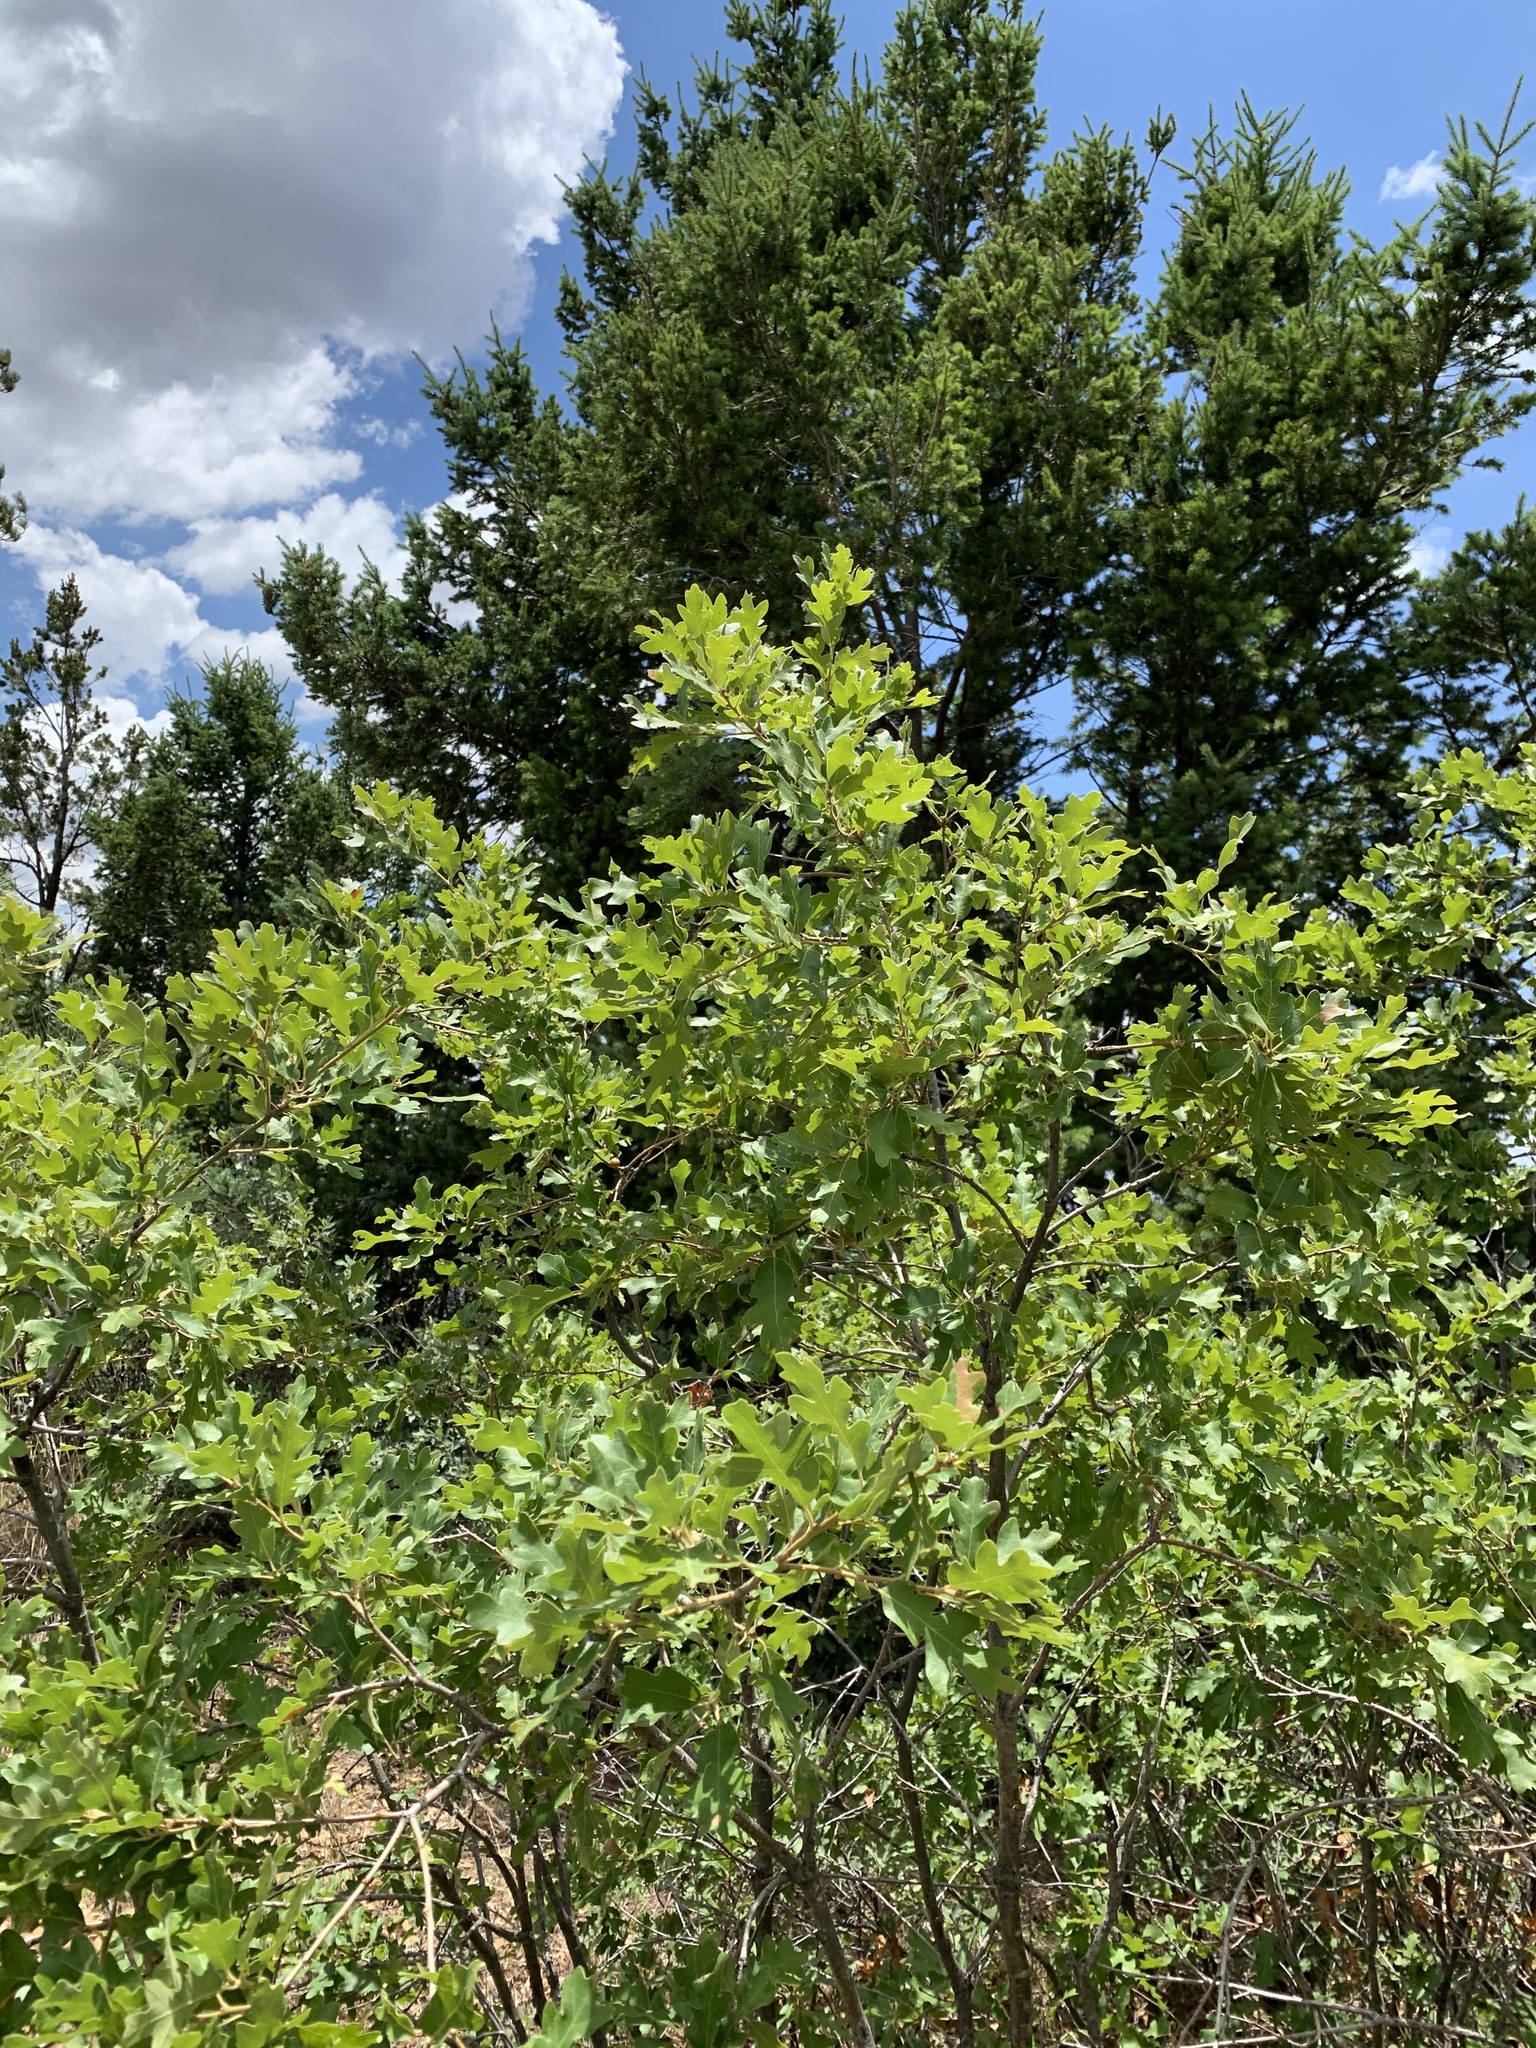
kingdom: Plantae
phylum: Tracheophyta
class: Magnoliopsida
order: Fagales
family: Fagaceae
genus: Quercus
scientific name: Quercus gambelii
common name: Gambel oak
